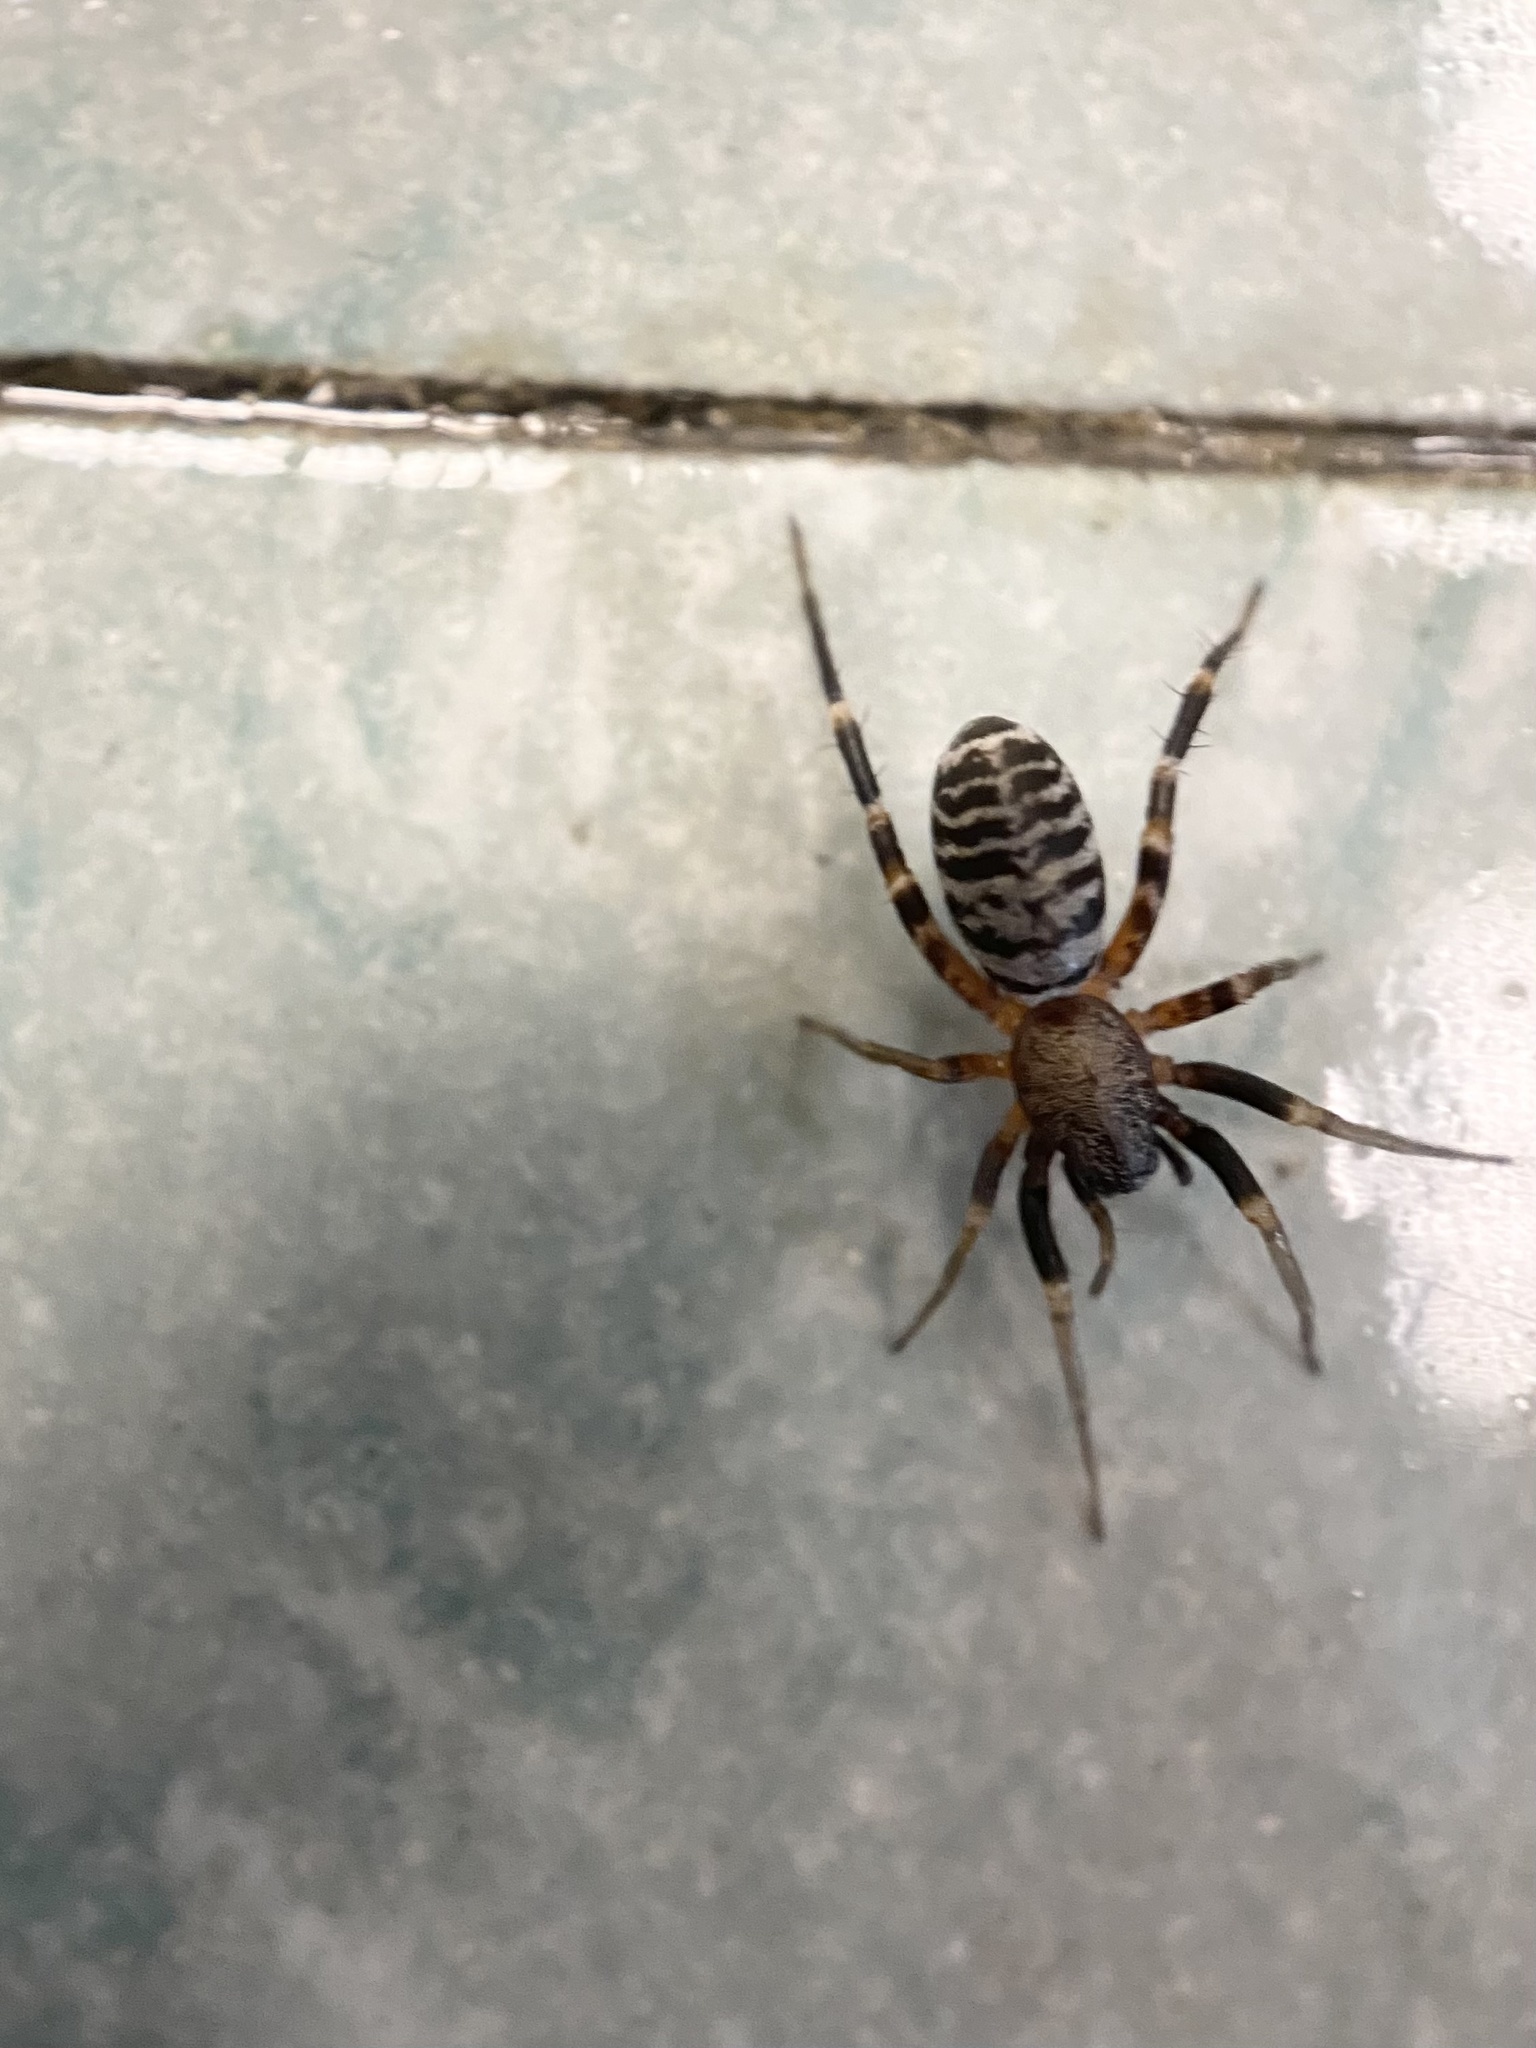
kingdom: Animalia
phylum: Arthropoda
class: Arachnida
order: Araneae
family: Corinnidae
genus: Castianeira
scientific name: Castianeira longipalpa
